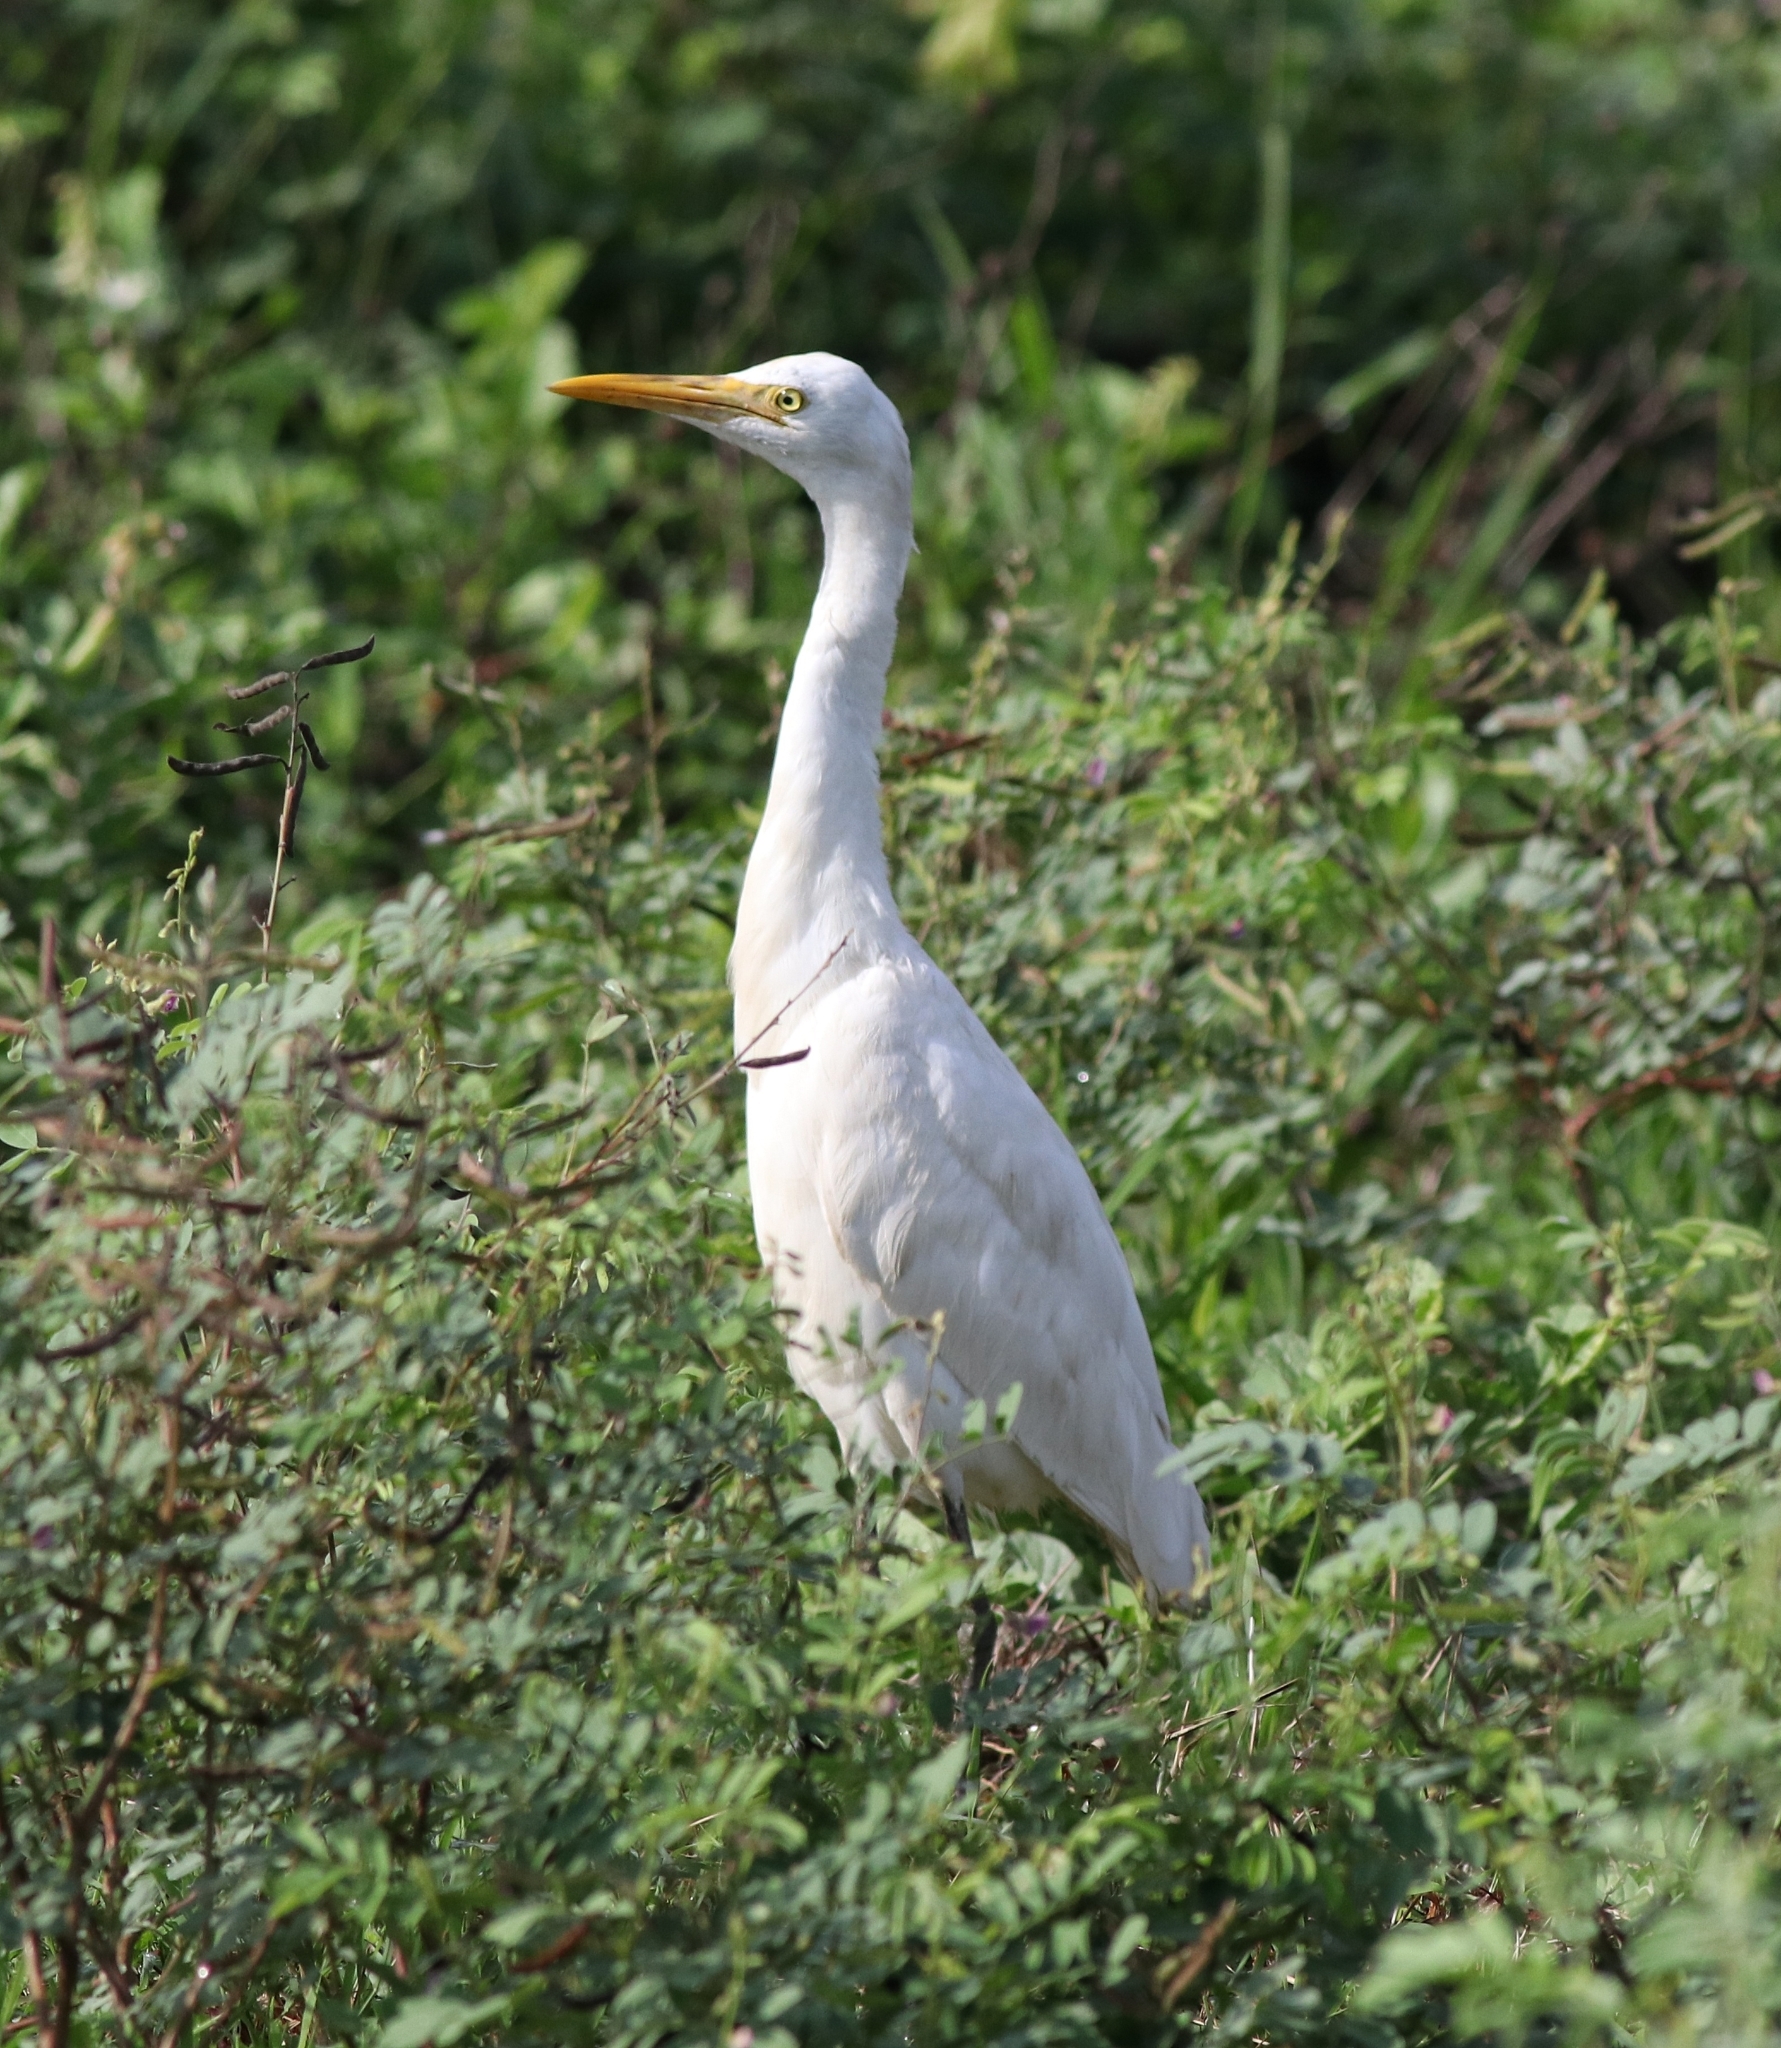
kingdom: Animalia
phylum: Chordata
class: Aves
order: Pelecaniformes
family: Ardeidae
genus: Bubulcus
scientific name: Bubulcus coromandus
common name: Eastern cattle egret
